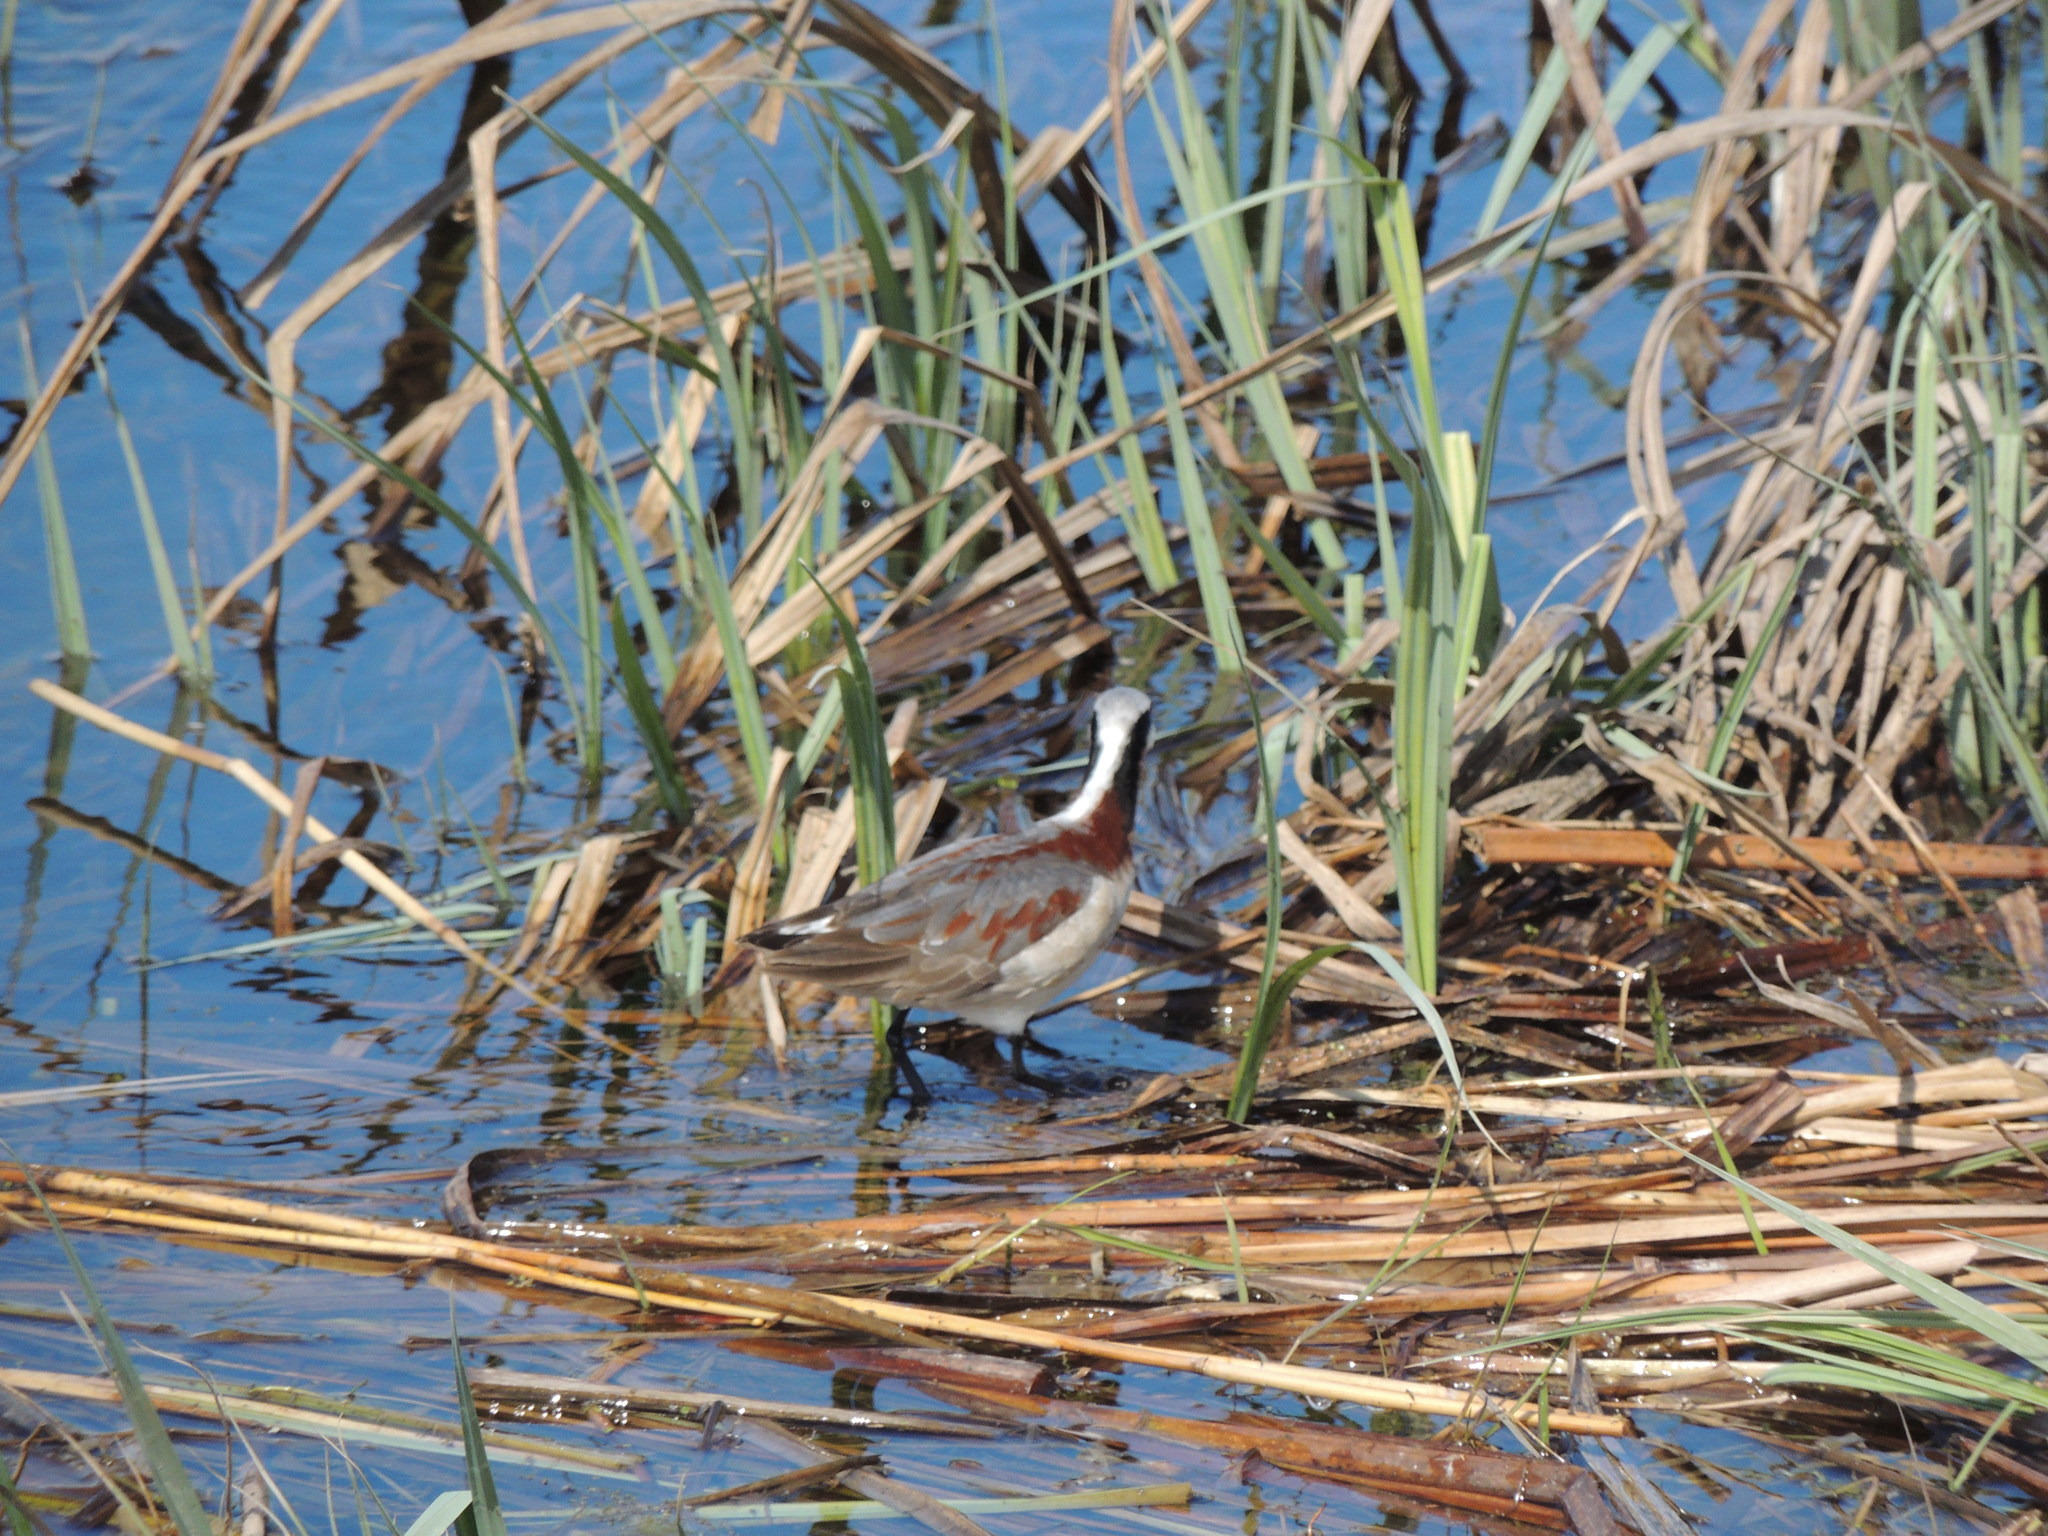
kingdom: Animalia
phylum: Chordata
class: Aves
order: Charadriiformes
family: Scolopacidae
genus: Phalaropus
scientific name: Phalaropus tricolor
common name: Wilson's phalarope
